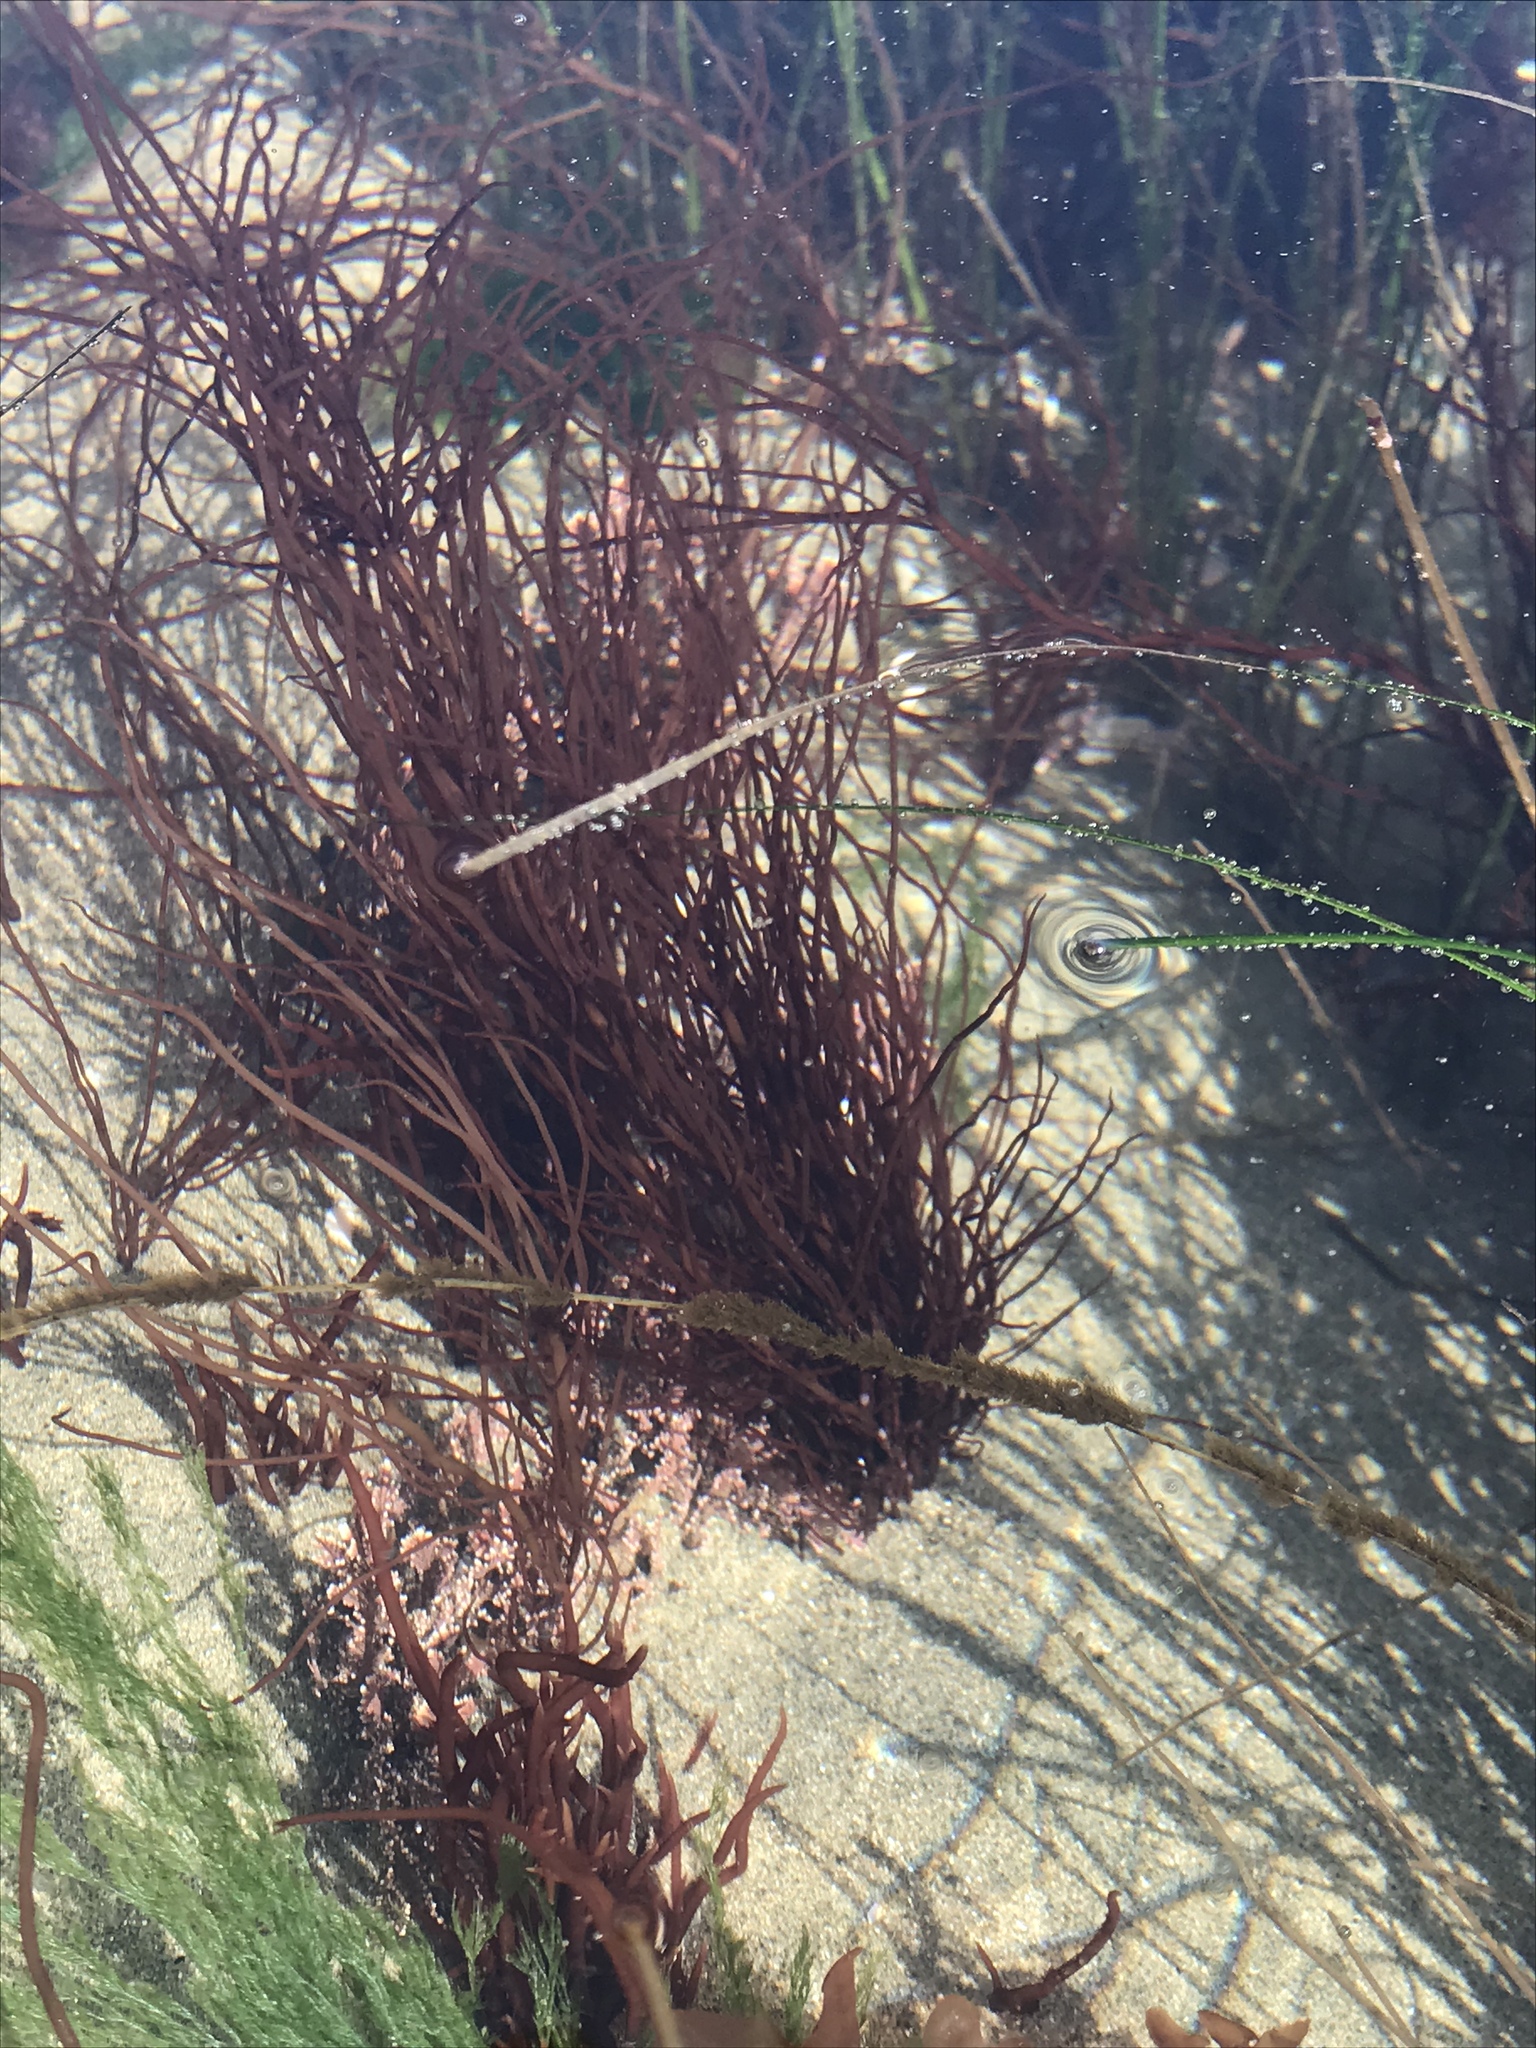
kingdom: Plantae
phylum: Rhodophyta
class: Florideophyceae
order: Gracilariales
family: Gracilariaceae
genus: Gracilariopsis
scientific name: Gracilariopsis andersonii
